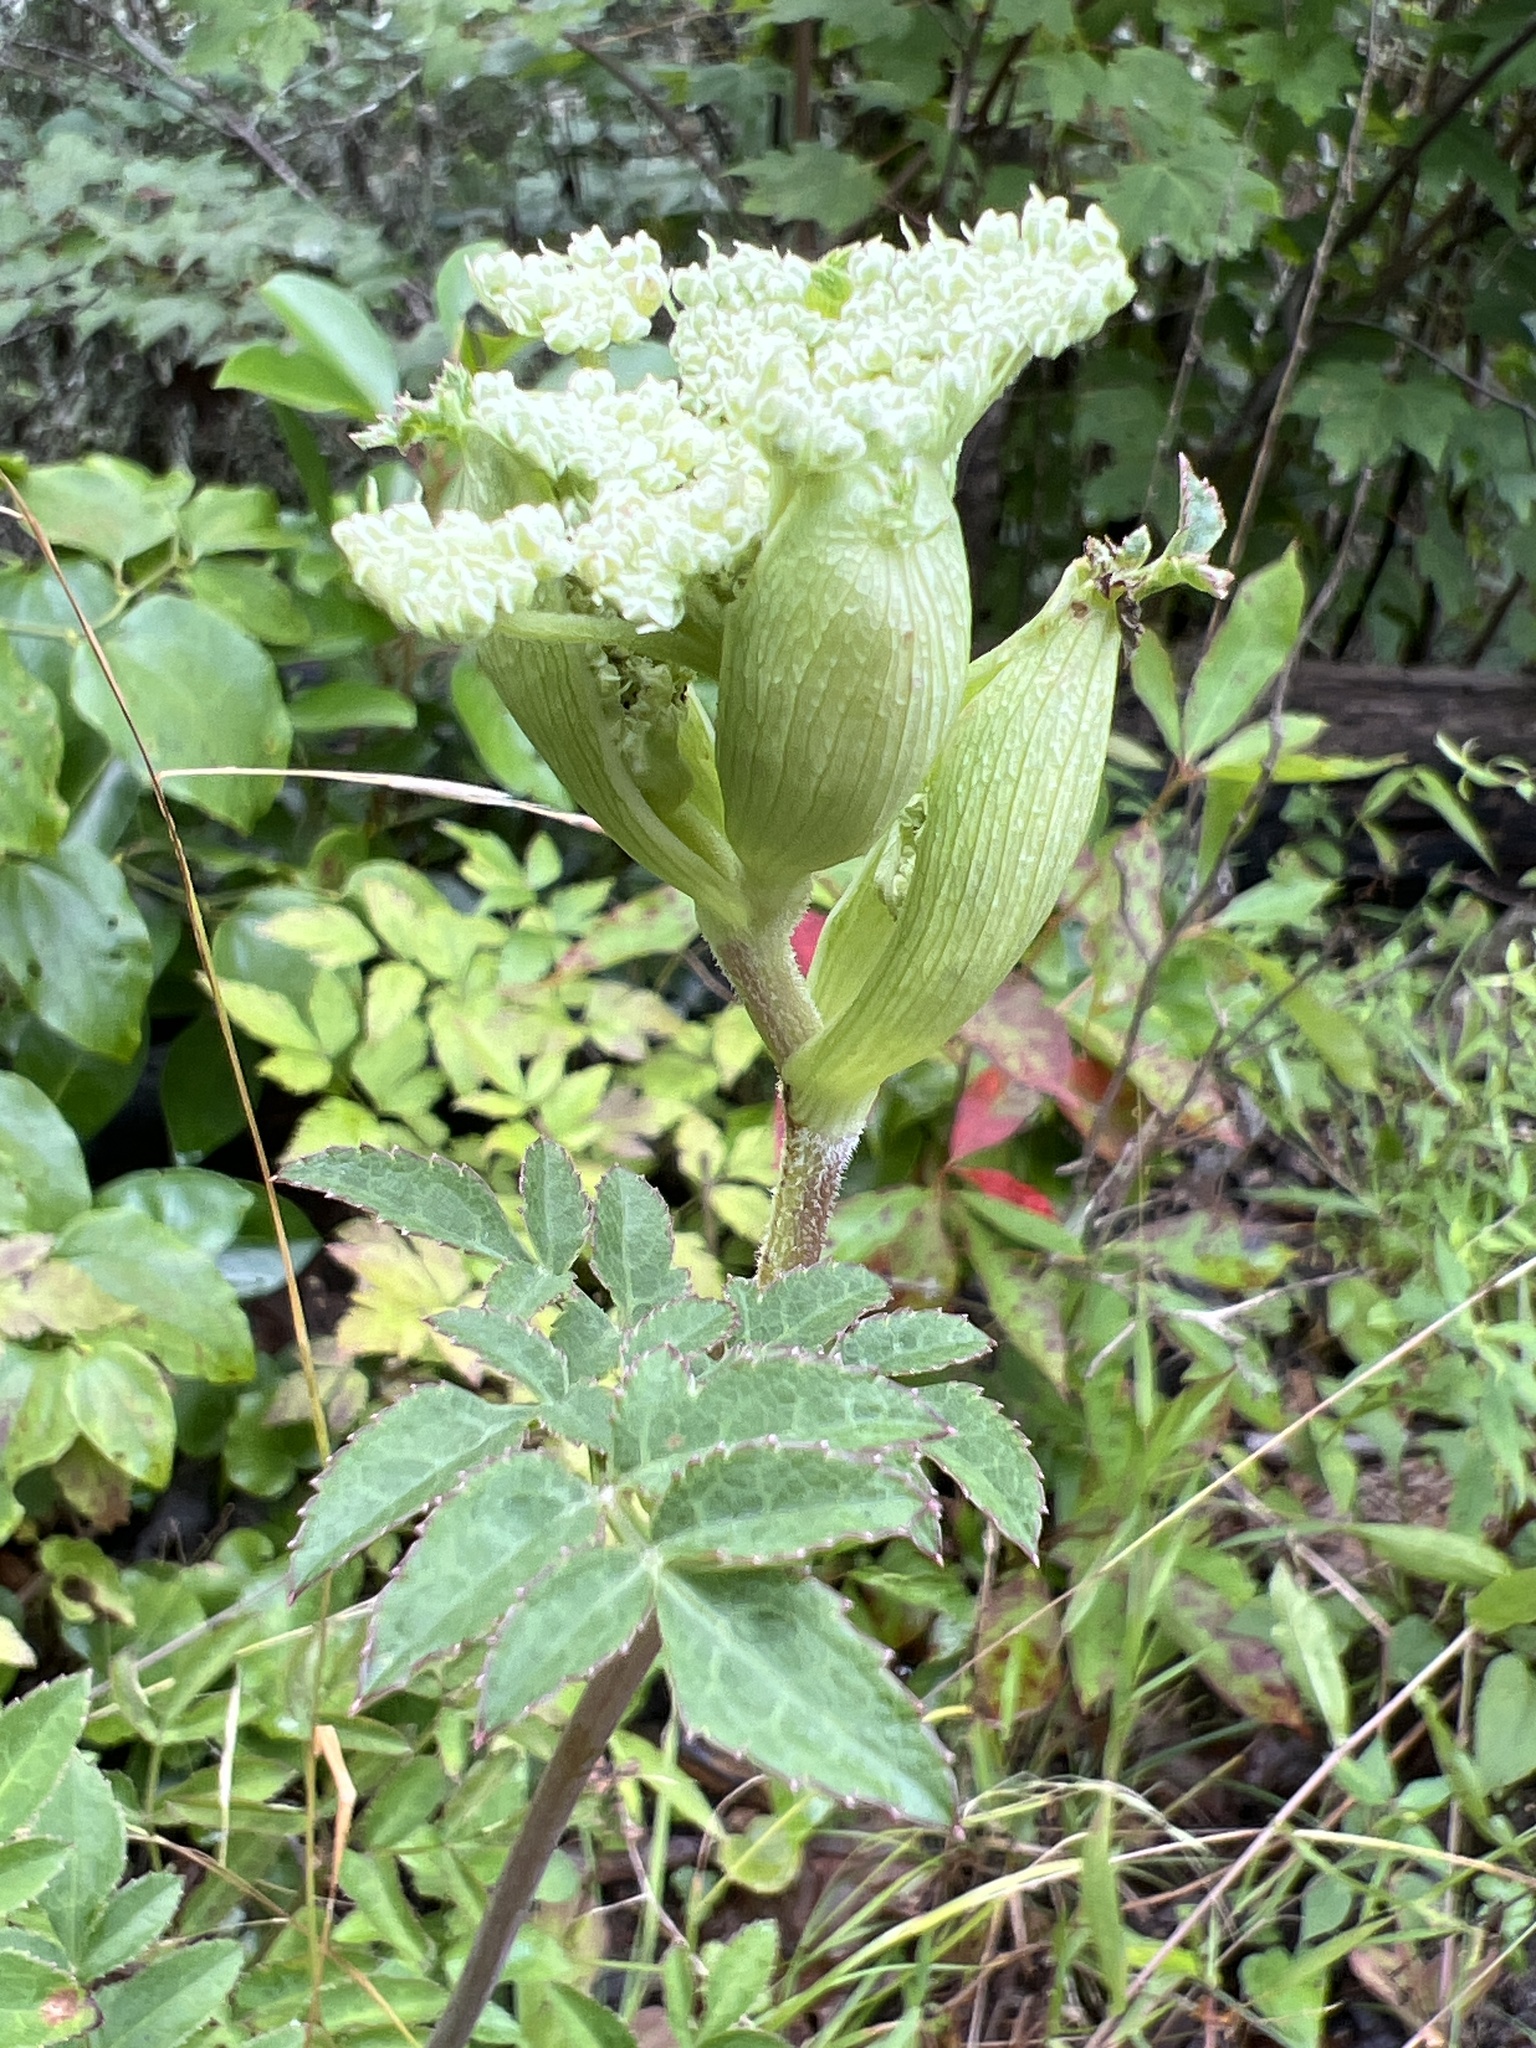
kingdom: Plantae
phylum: Tracheophyta
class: Magnoliopsida
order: Apiales
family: Apiaceae
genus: Angelica
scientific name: Angelica venenosa
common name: Hairy angelica
